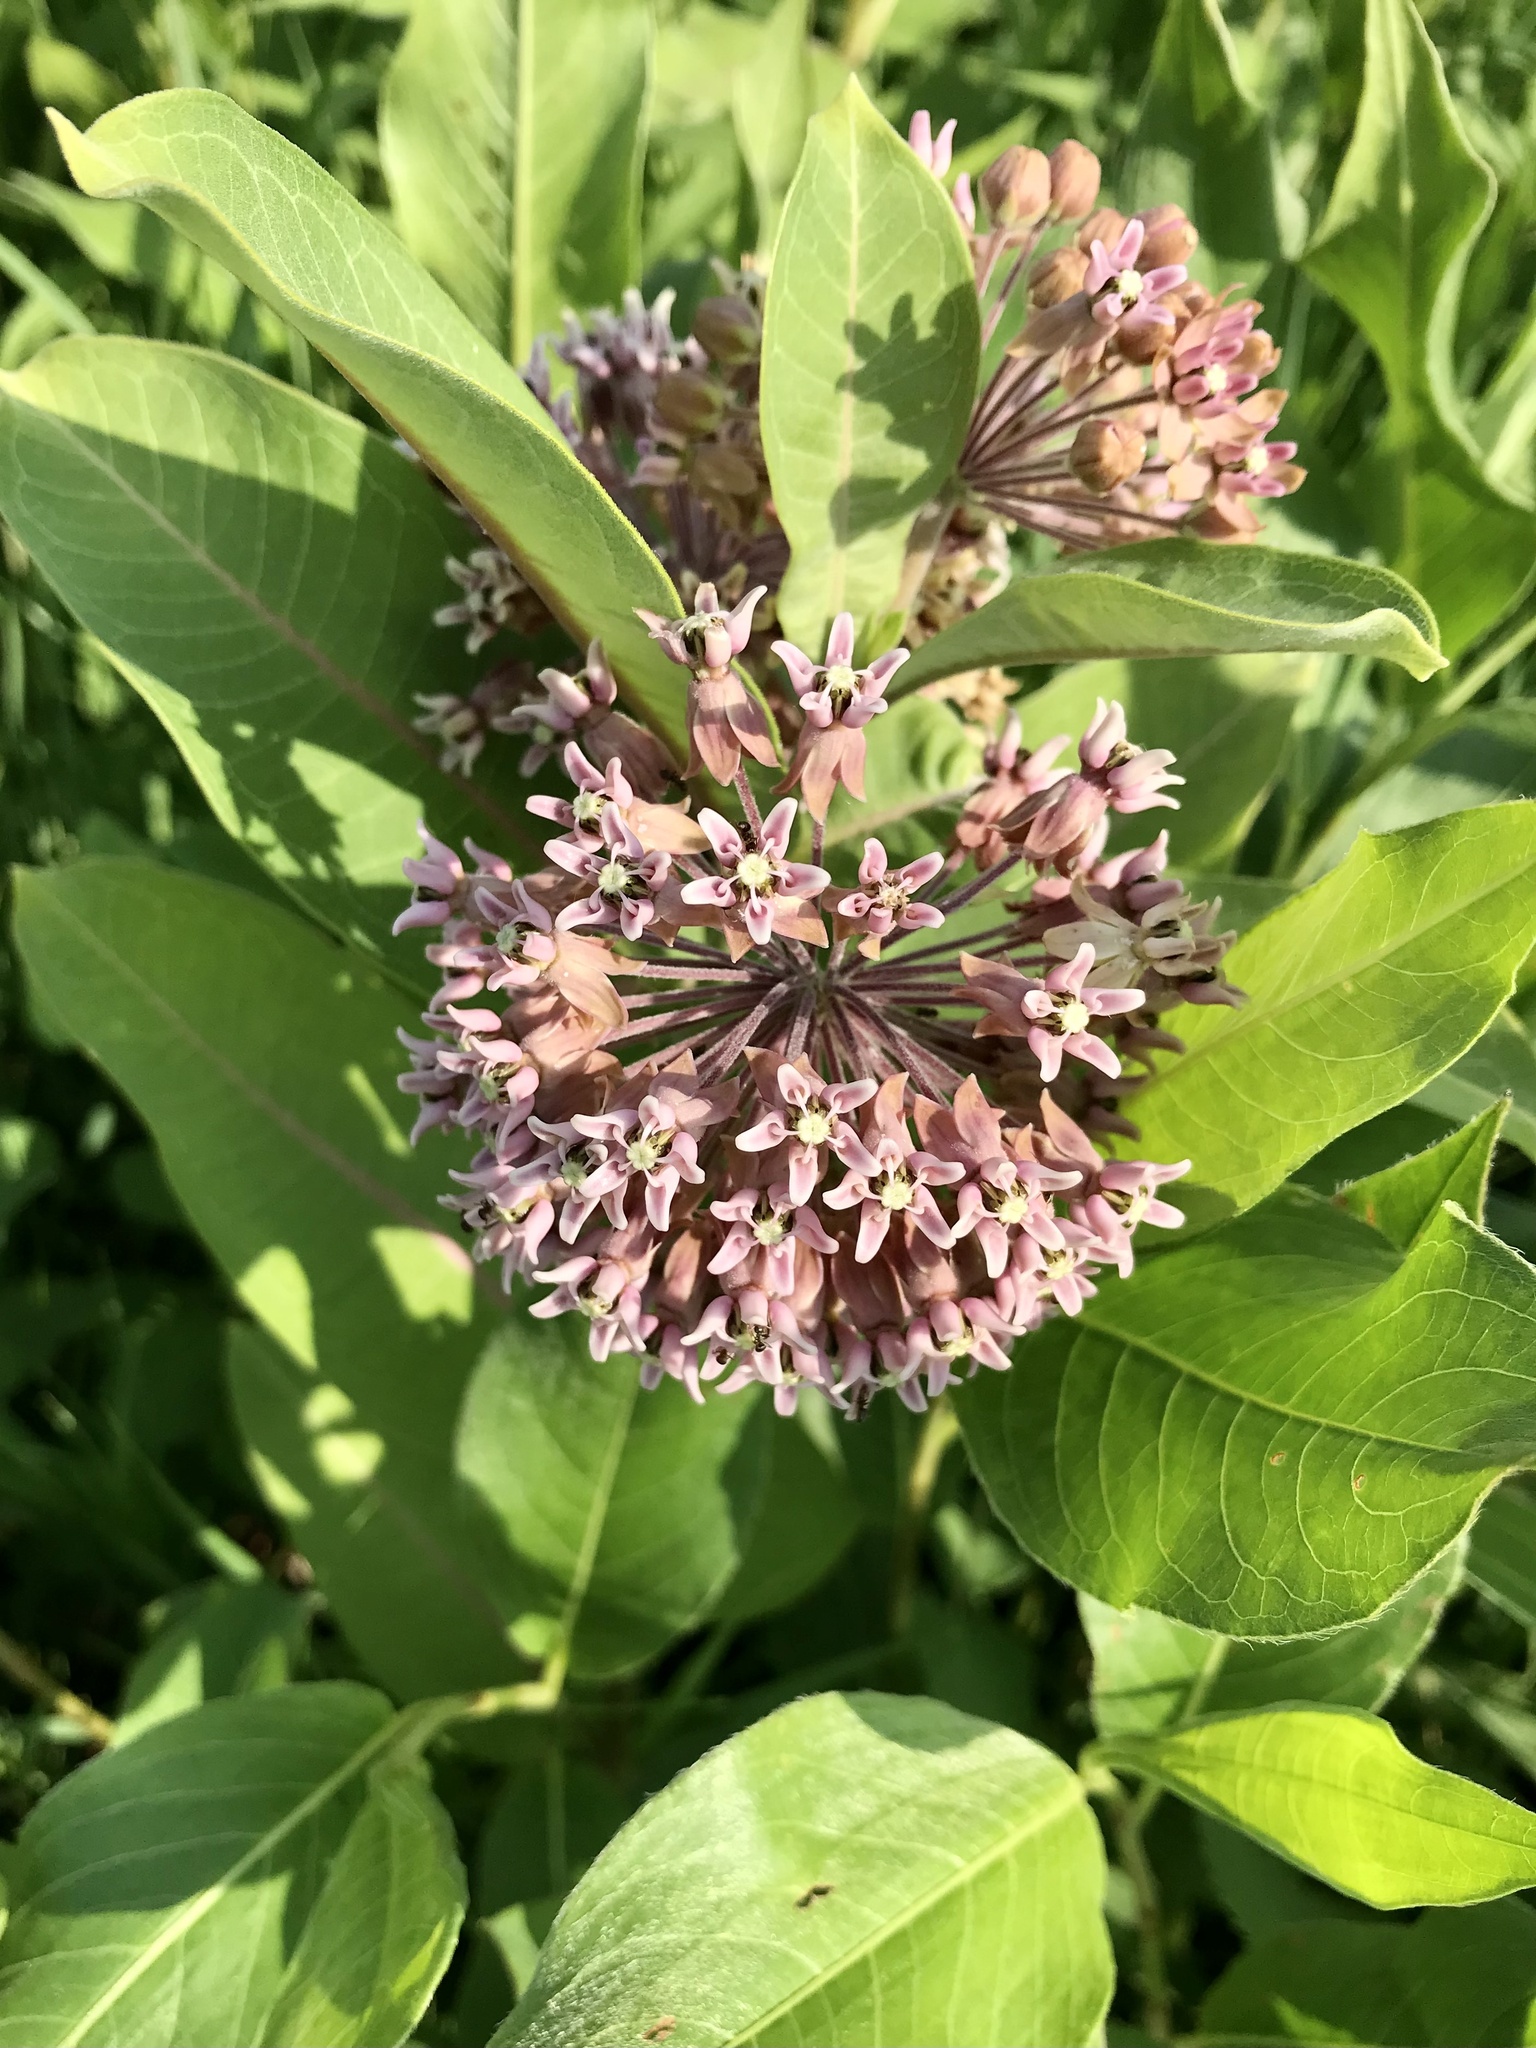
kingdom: Plantae
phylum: Tracheophyta
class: Magnoliopsida
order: Gentianales
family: Apocynaceae
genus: Asclepias
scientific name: Asclepias syriaca
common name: Common milkweed
